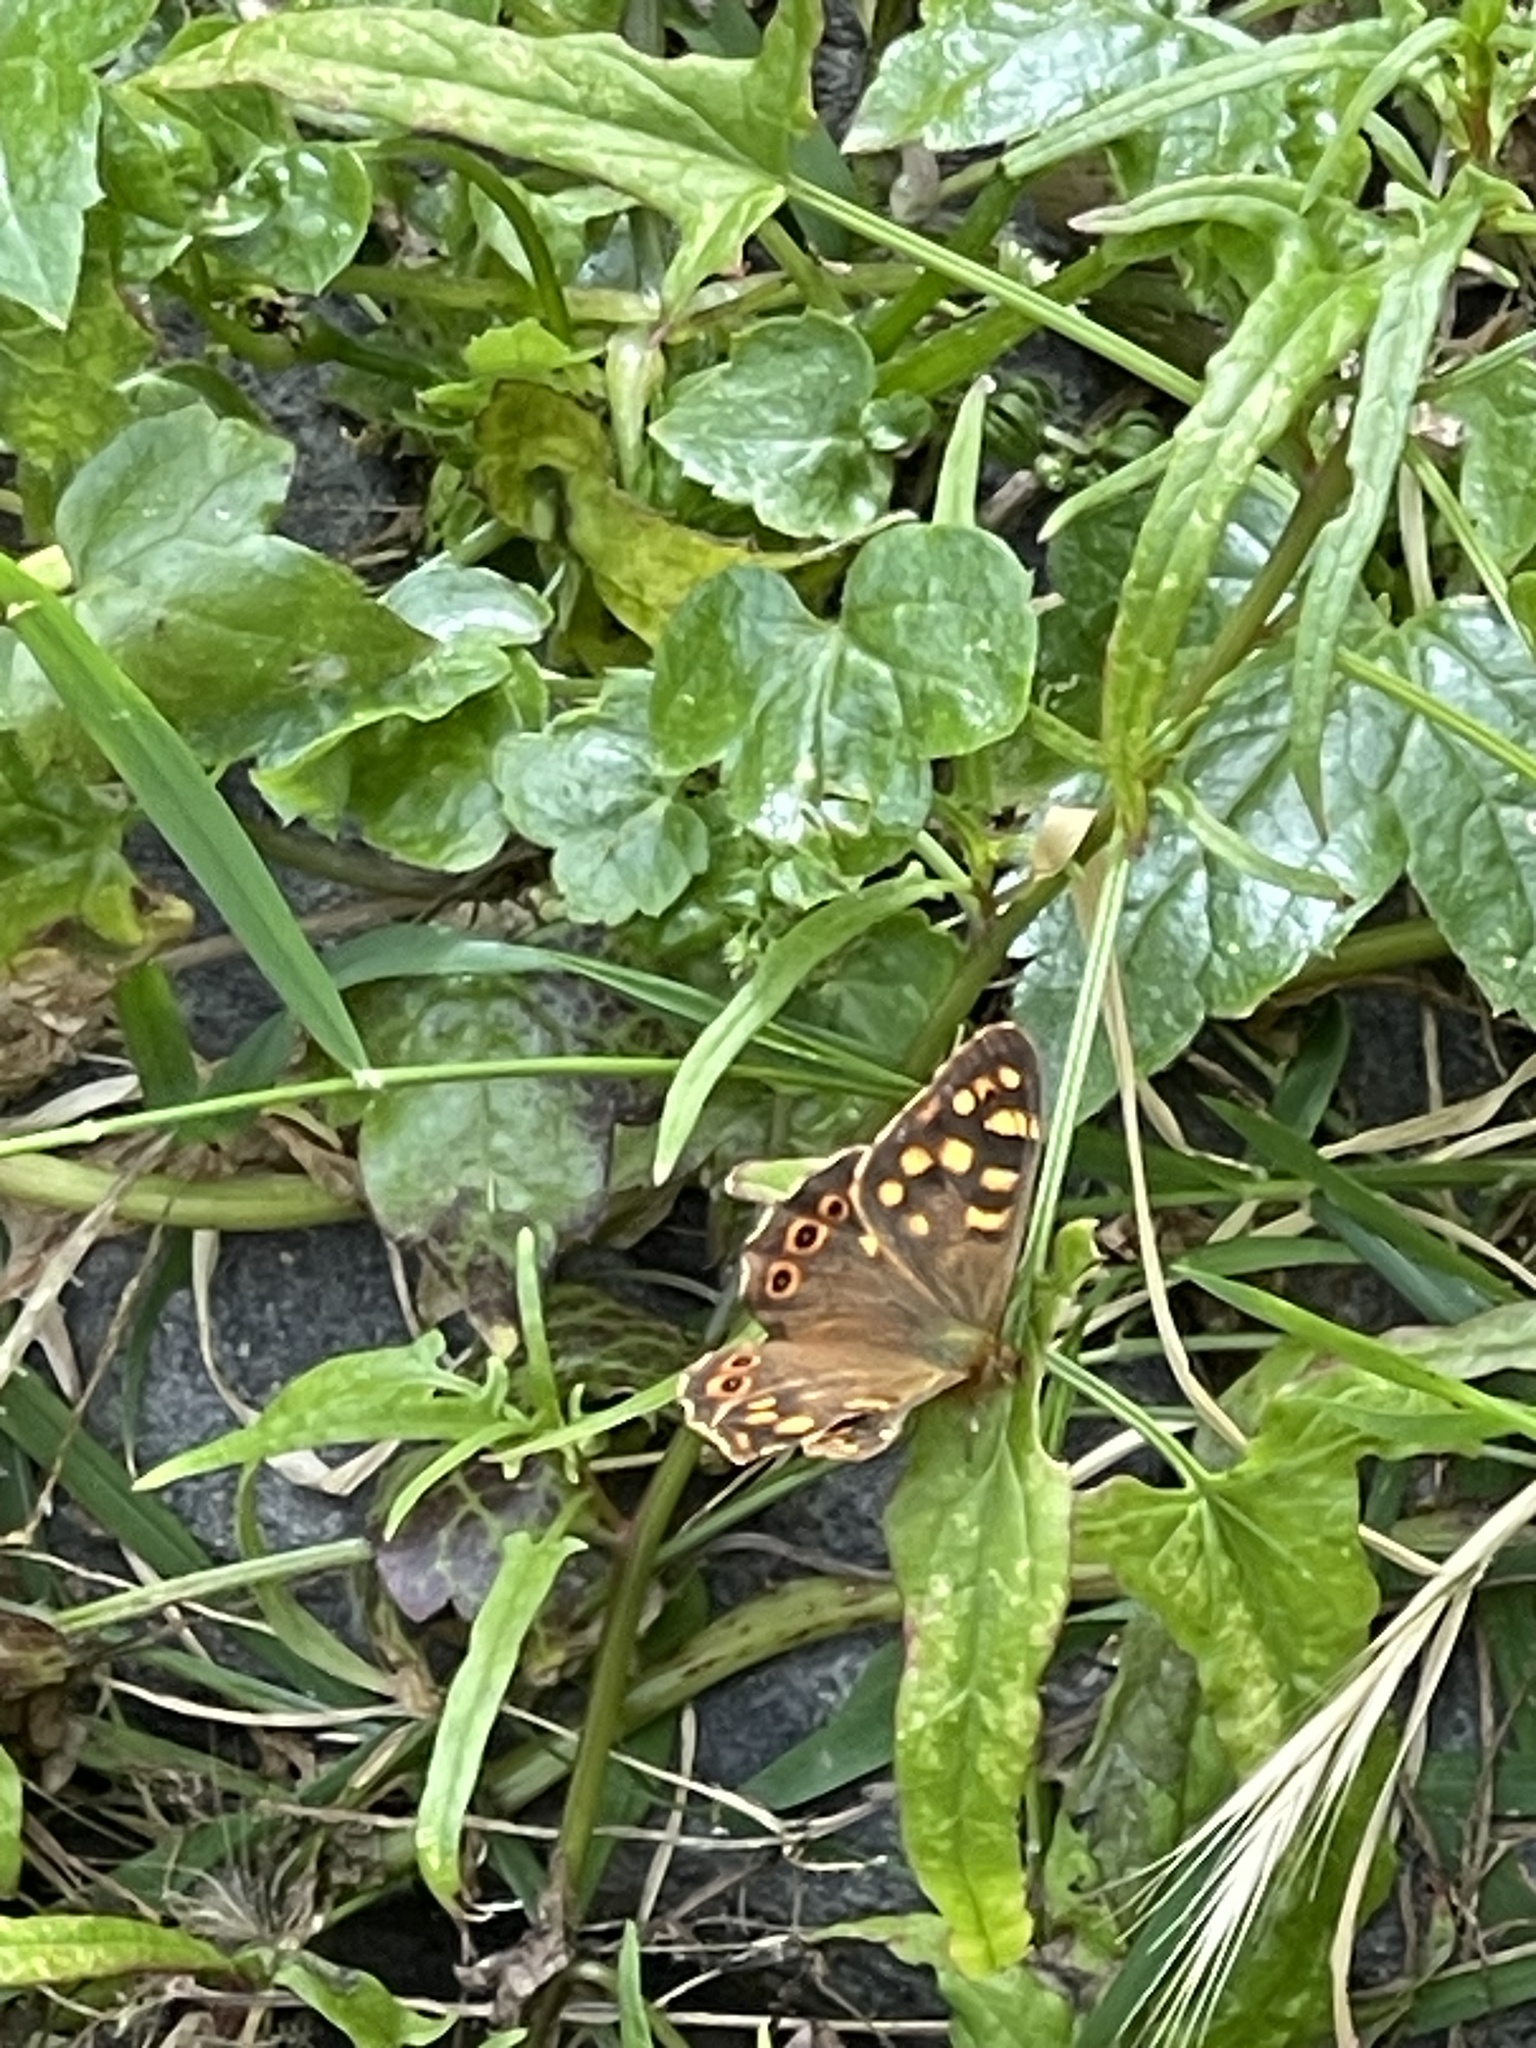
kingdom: Animalia
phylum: Arthropoda
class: Insecta
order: Lepidoptera
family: Nymphalidae
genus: Pararge
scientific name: Pararge aegeria
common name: Speckled wood
